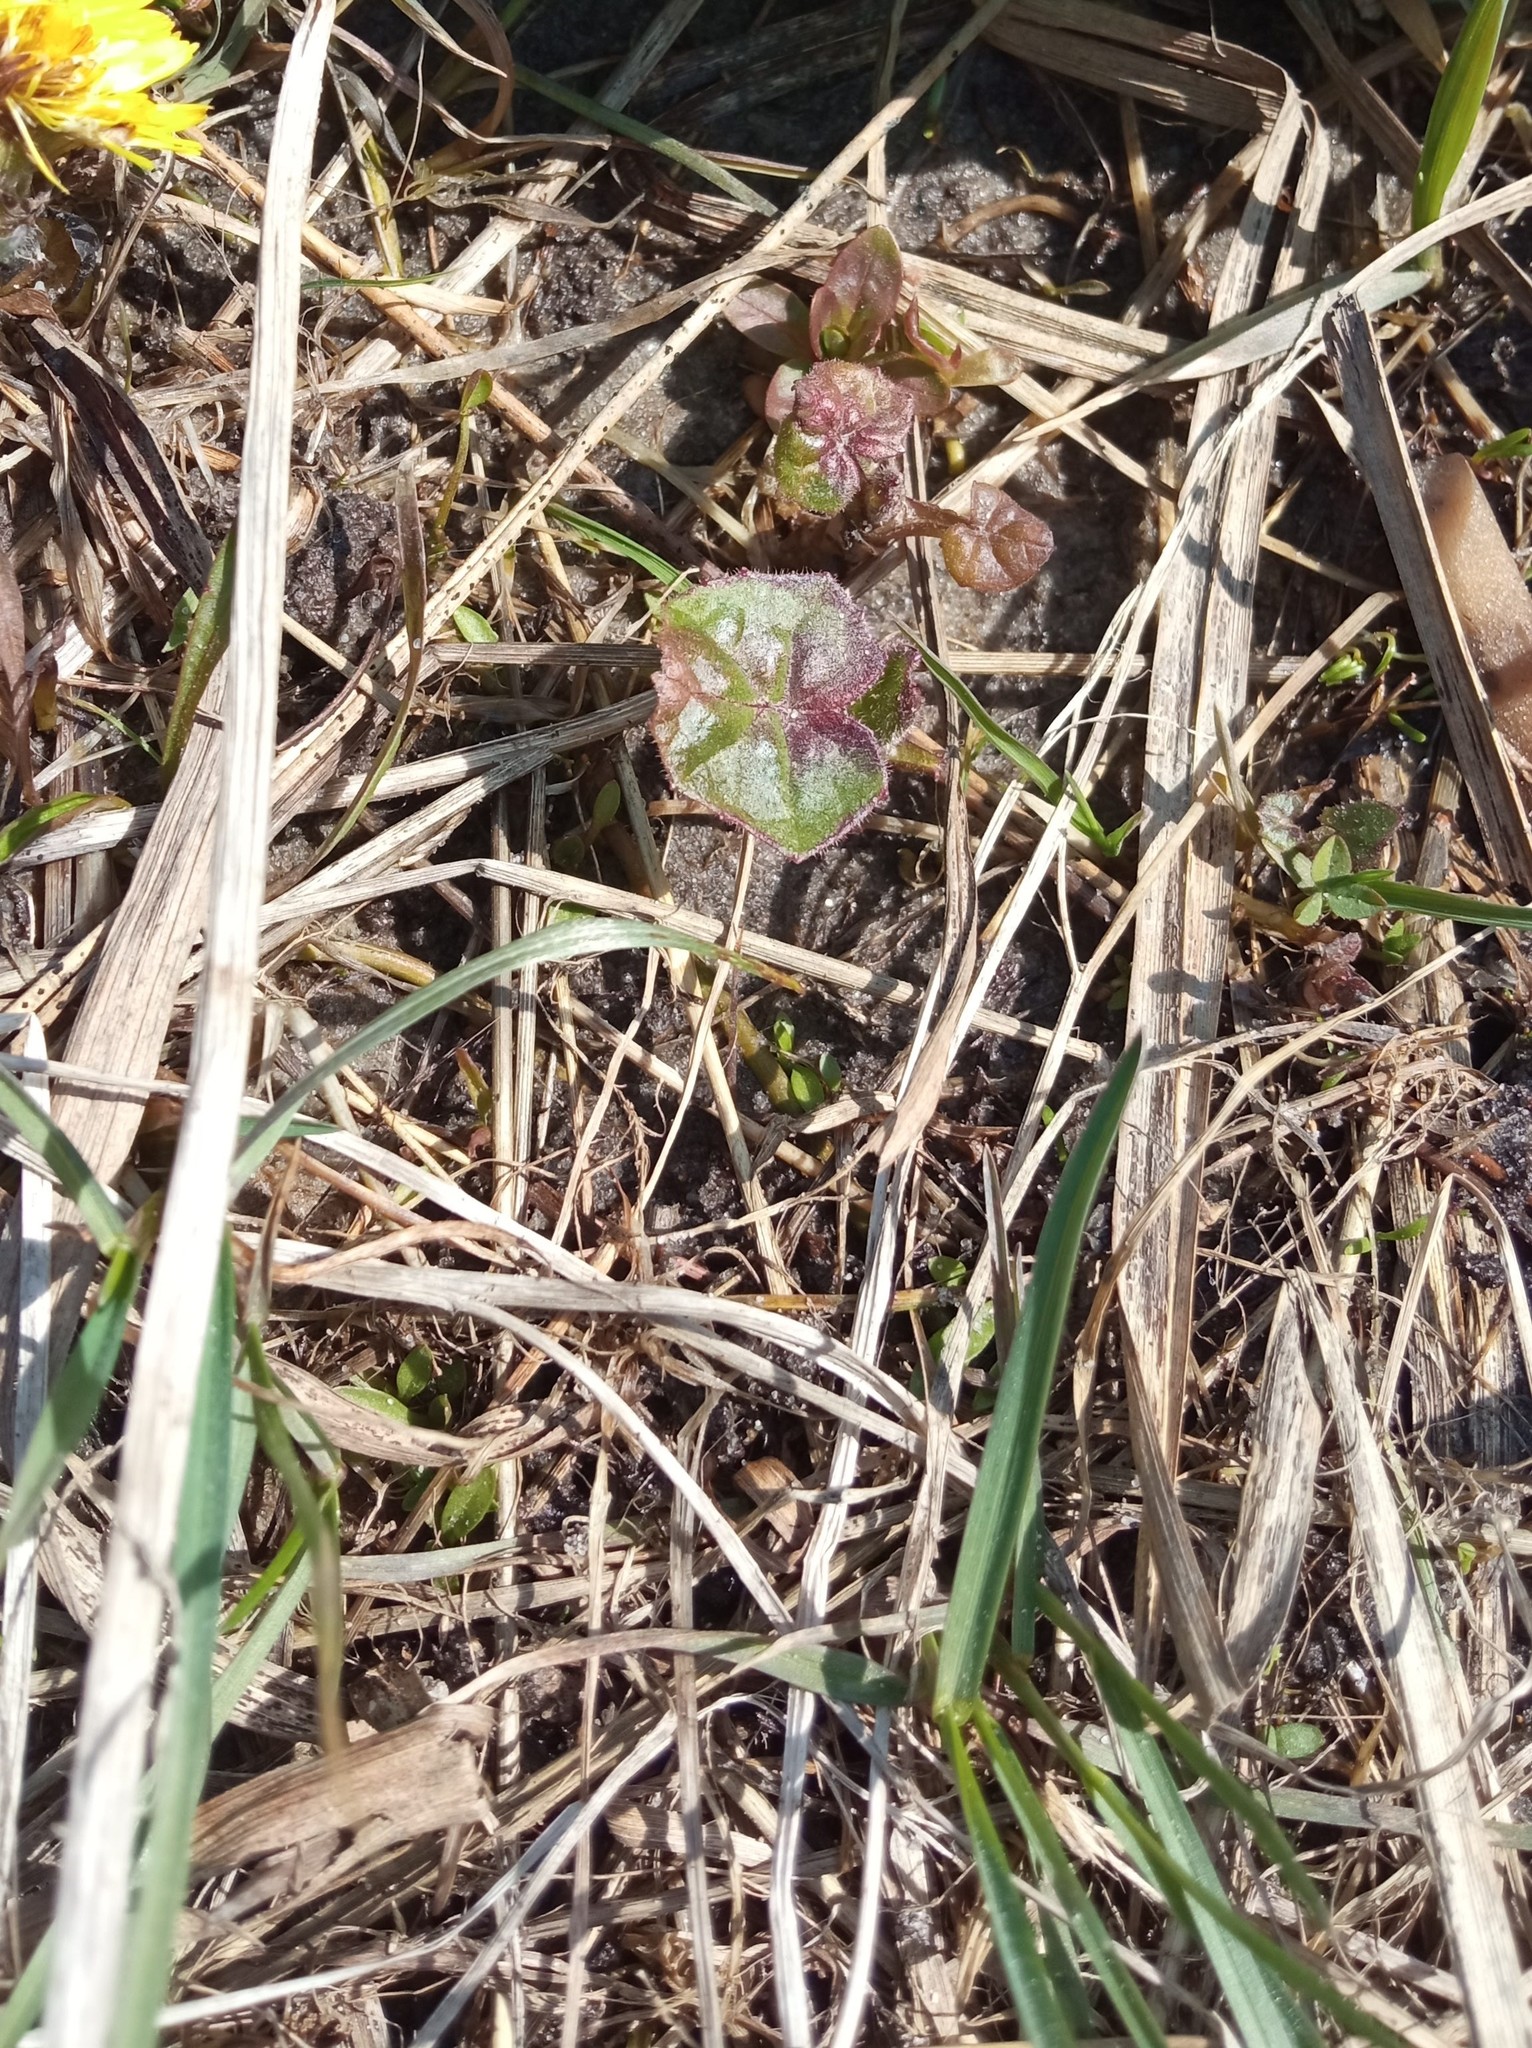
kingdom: Plantae
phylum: Tracheophyta
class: Magnoliopsida
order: Asterales
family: Asteraceae
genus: Tussilago
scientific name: Tussilago farfara
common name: Coltsfoot
